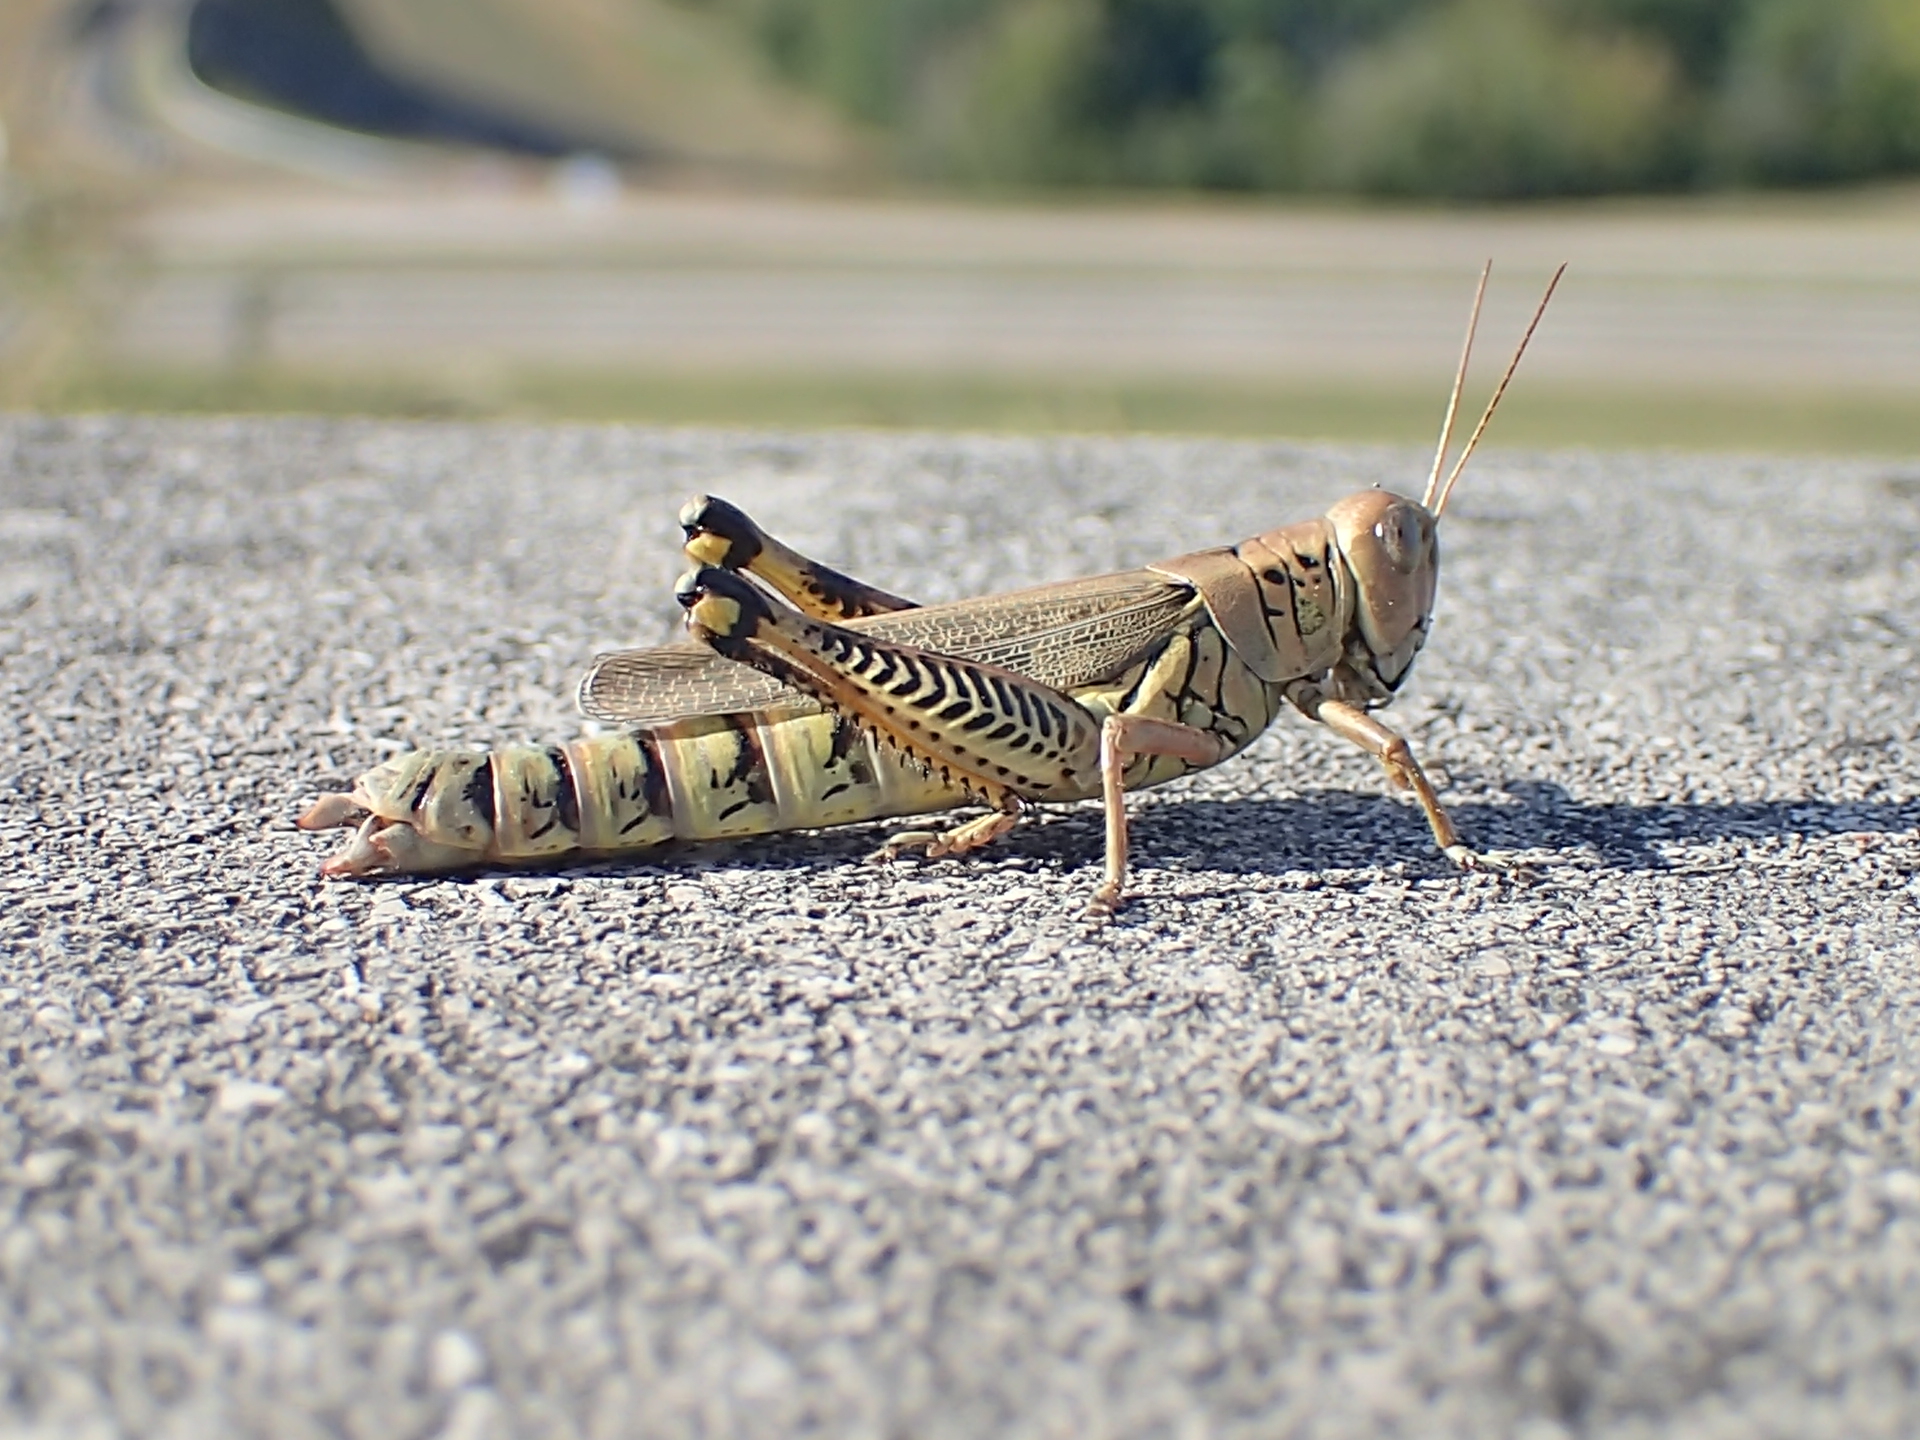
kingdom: Animalia
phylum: Arthropoda
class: Insecta
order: Orthoptera
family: Acrididae
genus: Melanoplus
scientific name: Melanoplus differentialis
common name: Differential grasshopper
